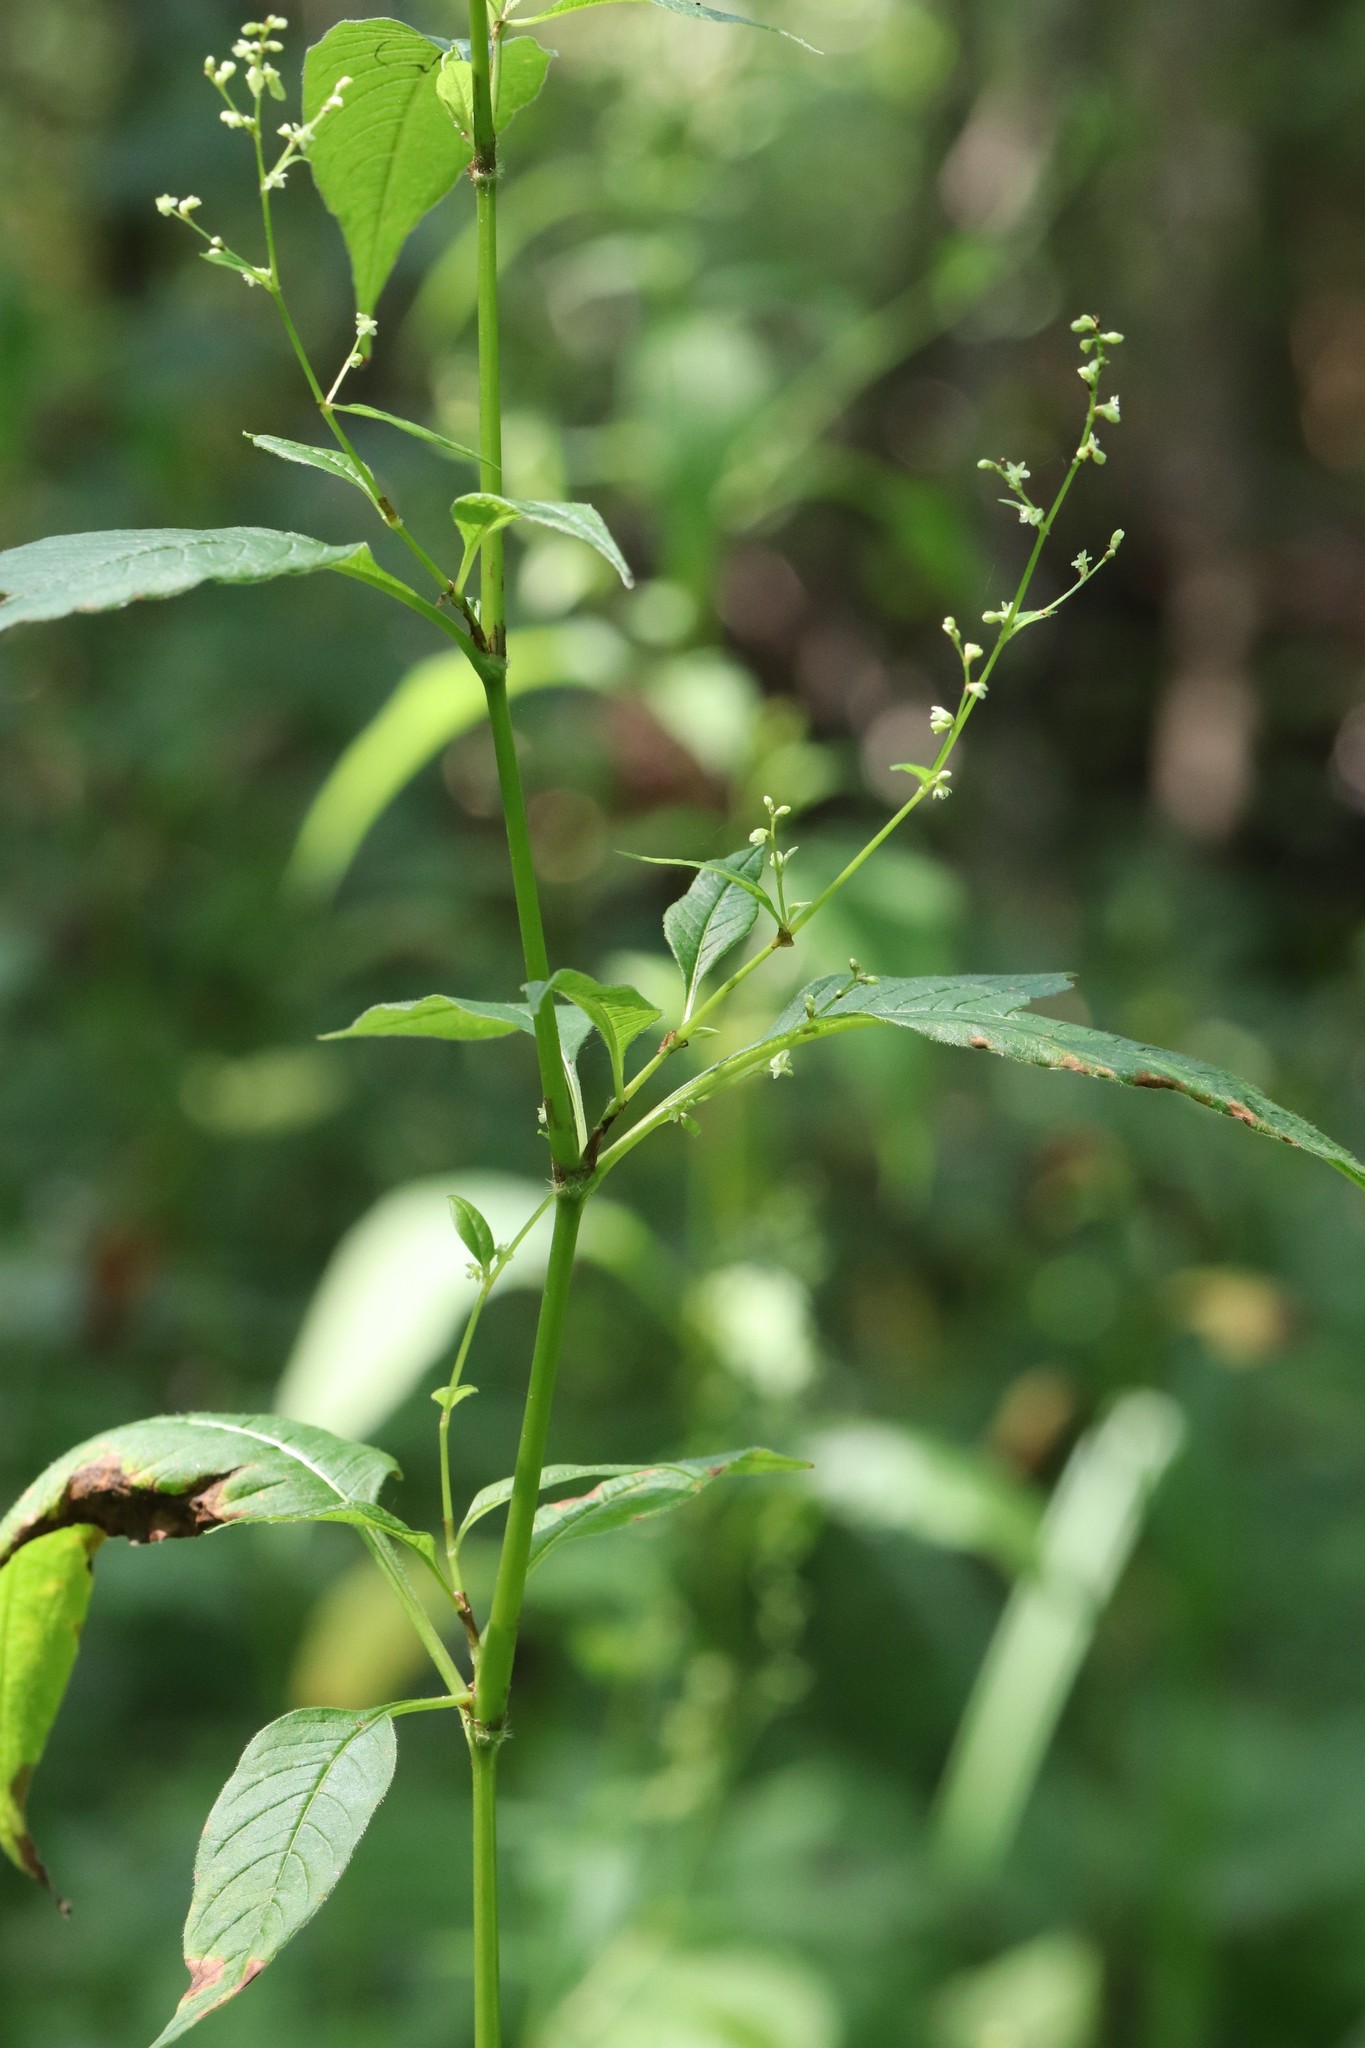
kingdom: Plantae
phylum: Tracheophyta
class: Magnoliopsida
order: Caryophyllales
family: Polygonaceae
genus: Koenigia
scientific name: Koenigia limosa
